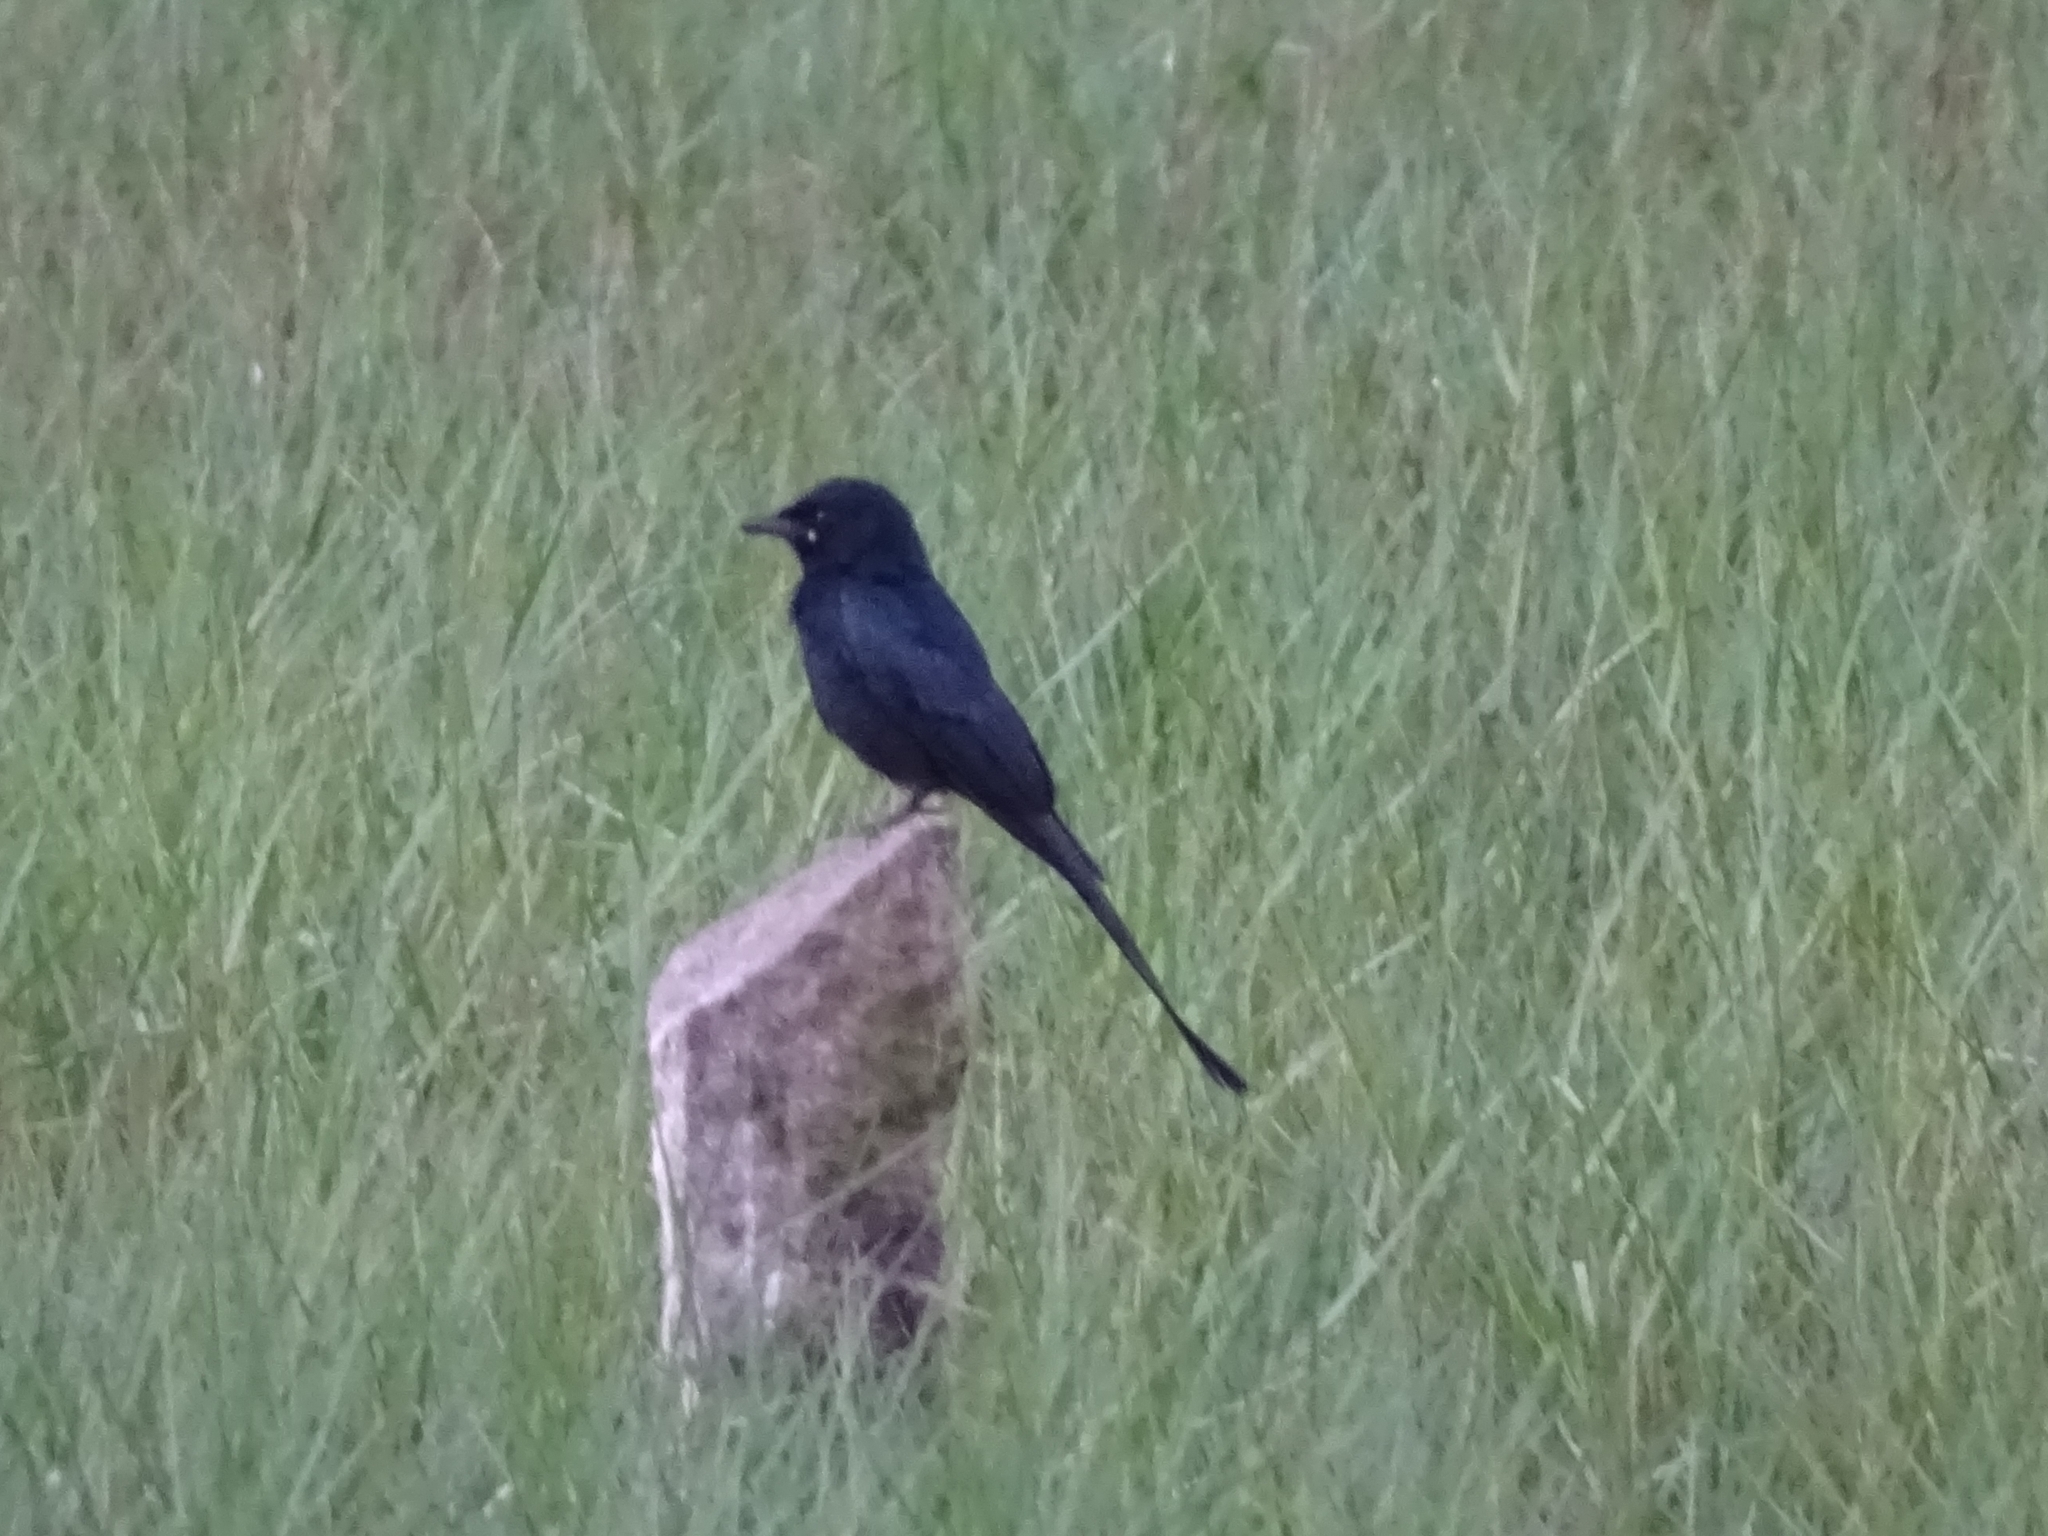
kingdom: Animalia
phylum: Chordata
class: Aves
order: Passeriformes
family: Dicruridae
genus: Dicrurus
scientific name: Dicrurus macrocercus
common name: Black drongo
